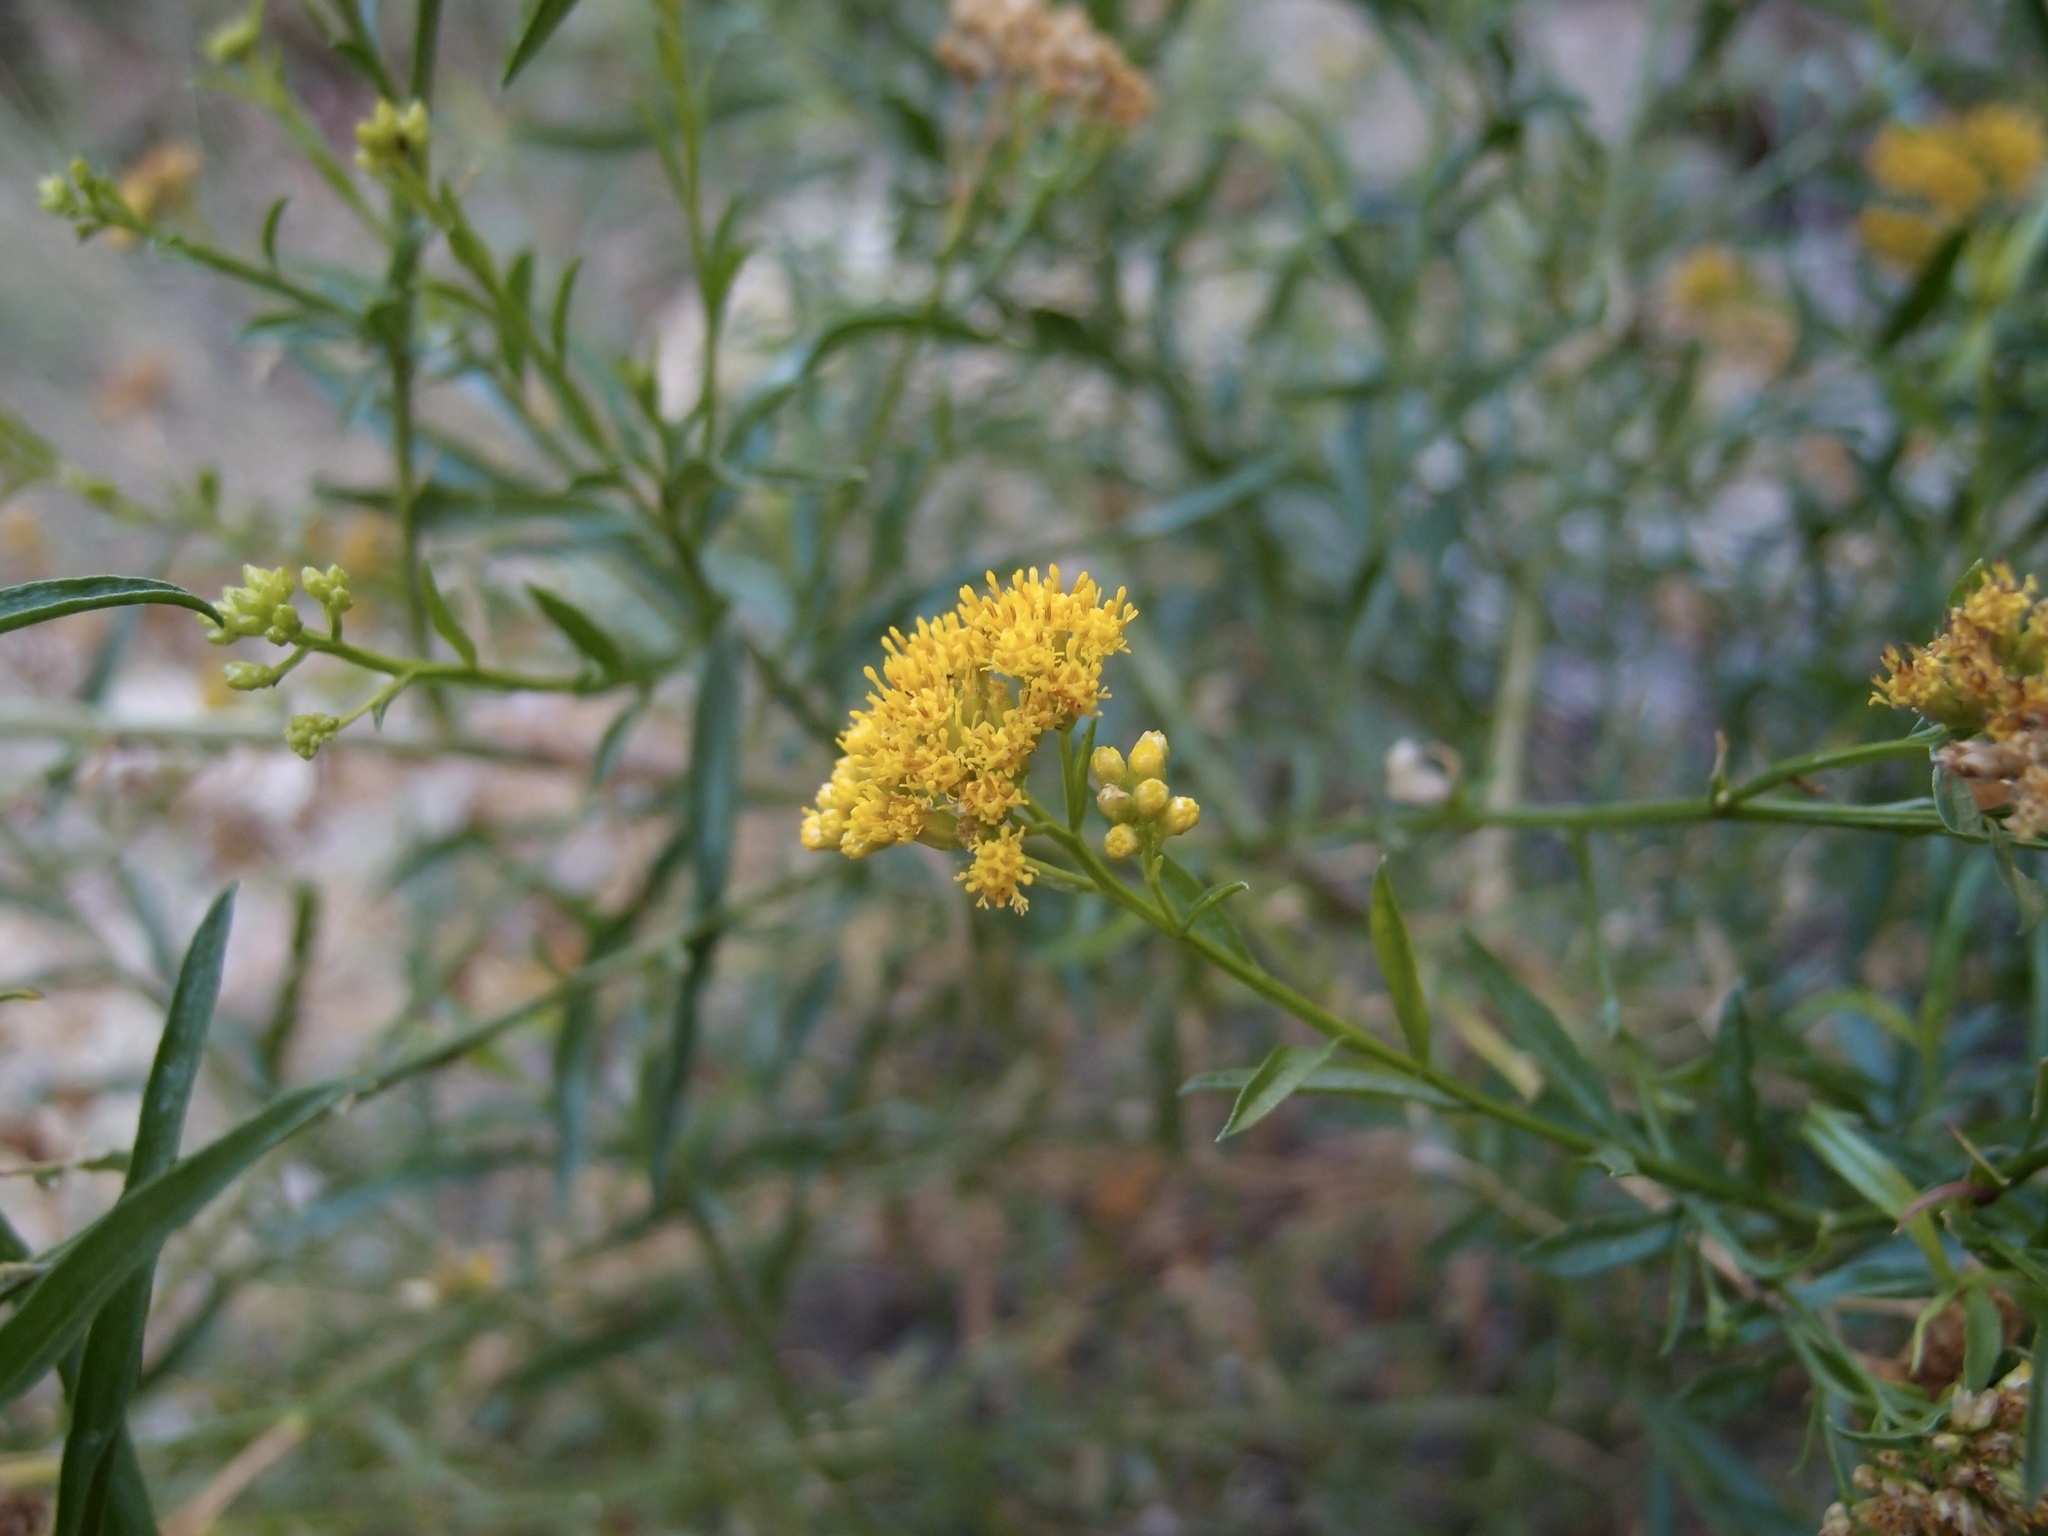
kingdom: Plantae
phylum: Tracheophyta
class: Magnoliopsida
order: Asterales
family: Asteraceae
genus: Gymnosperma
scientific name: Gymnosperma glutinosum
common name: Gumhead
